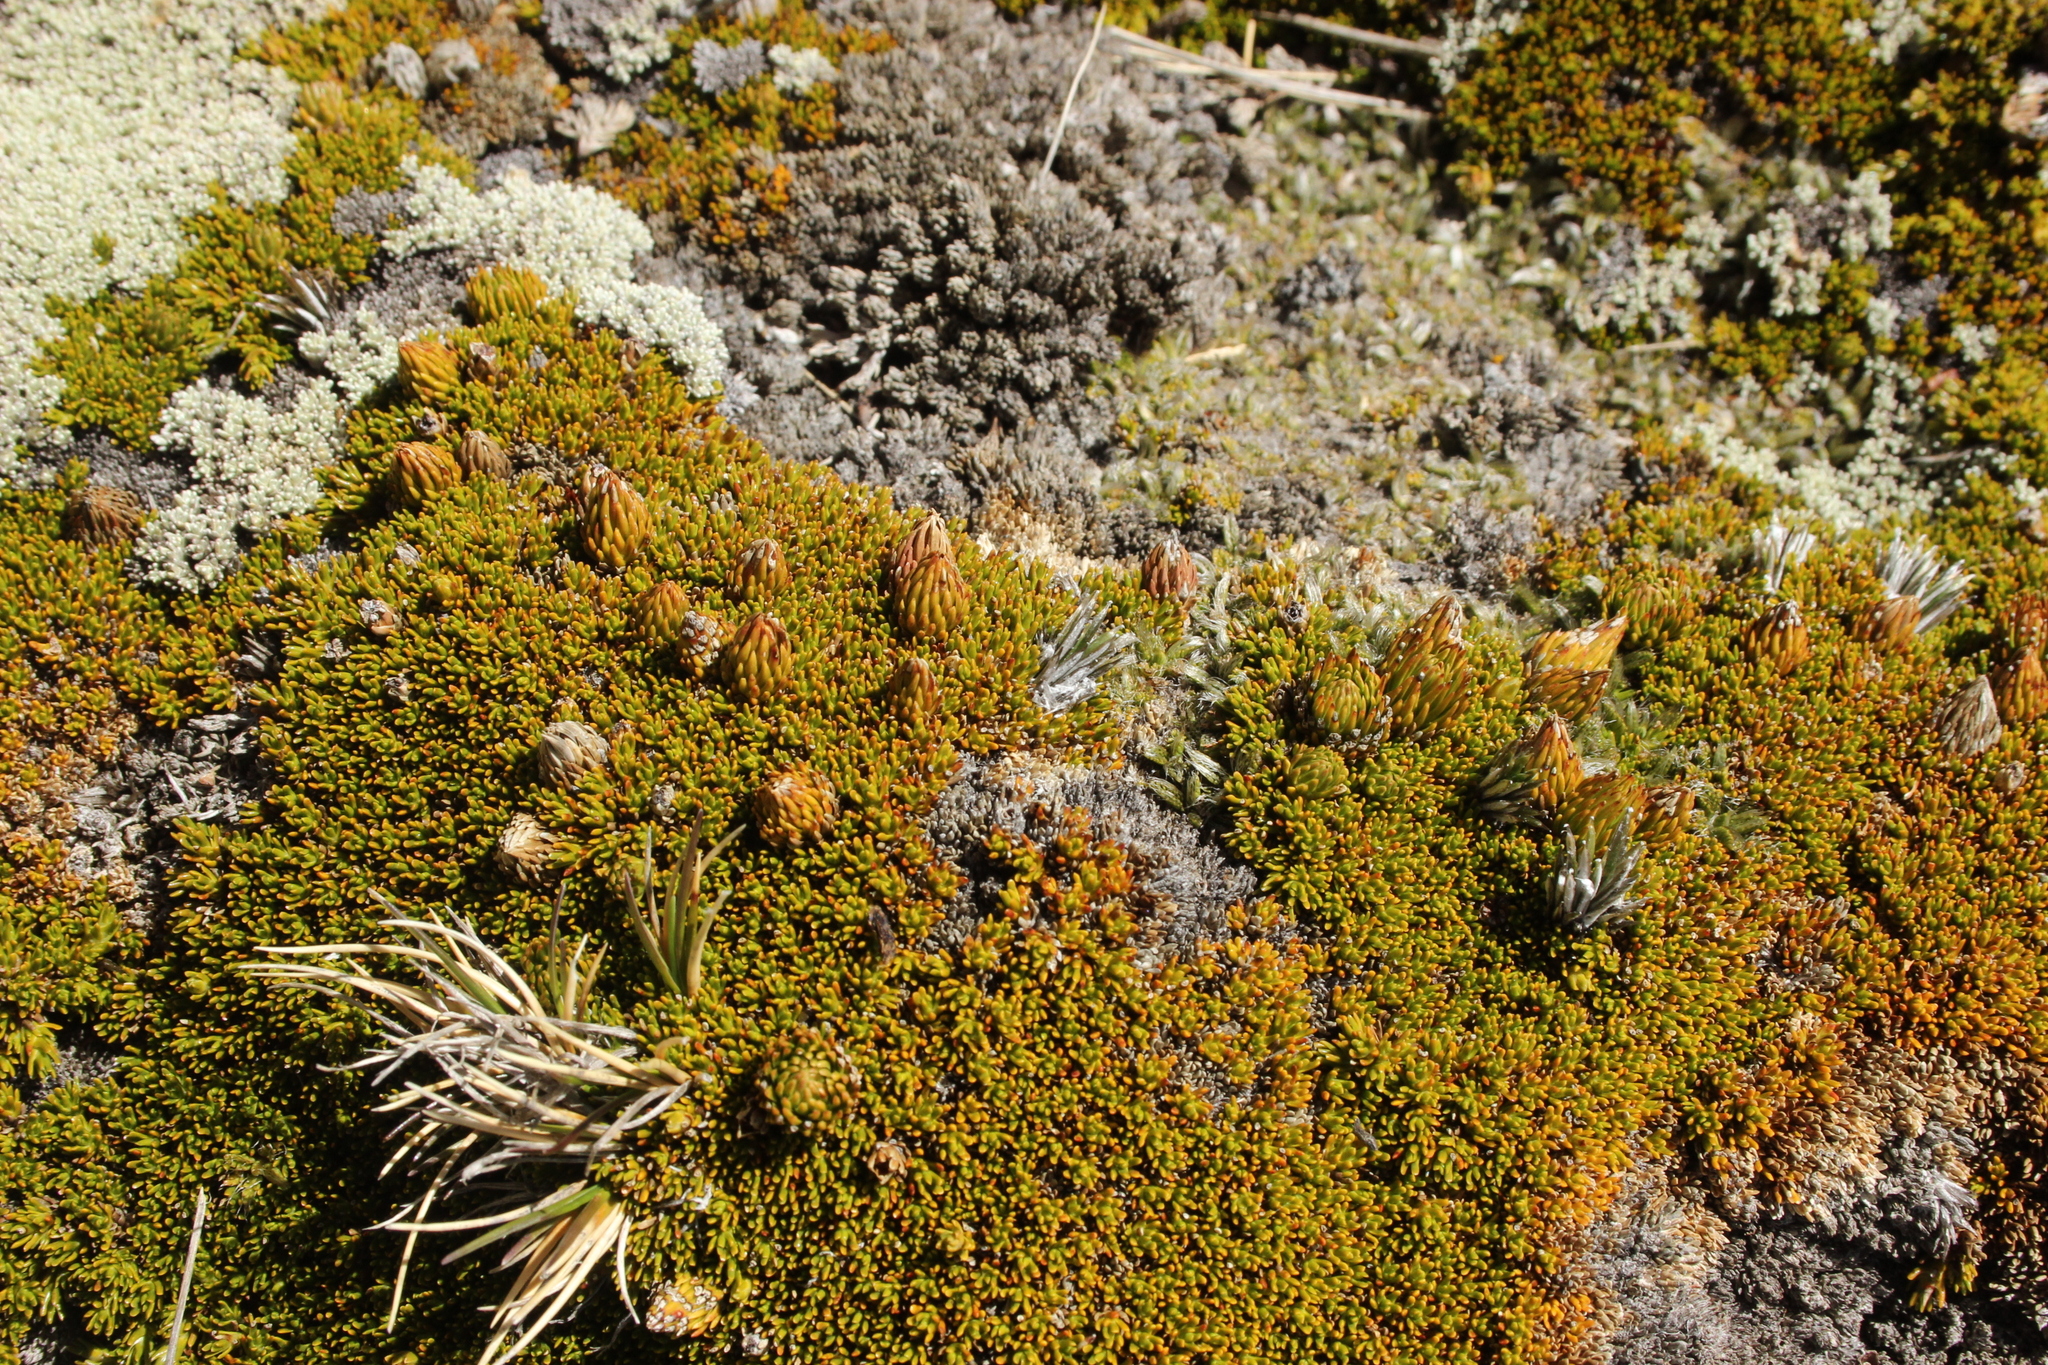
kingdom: Plantae
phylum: Tracheophyta
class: Magnoliopsida
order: Ericales
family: Ericaceae
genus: Dracophyllum
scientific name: Dracophyllum muscoides
